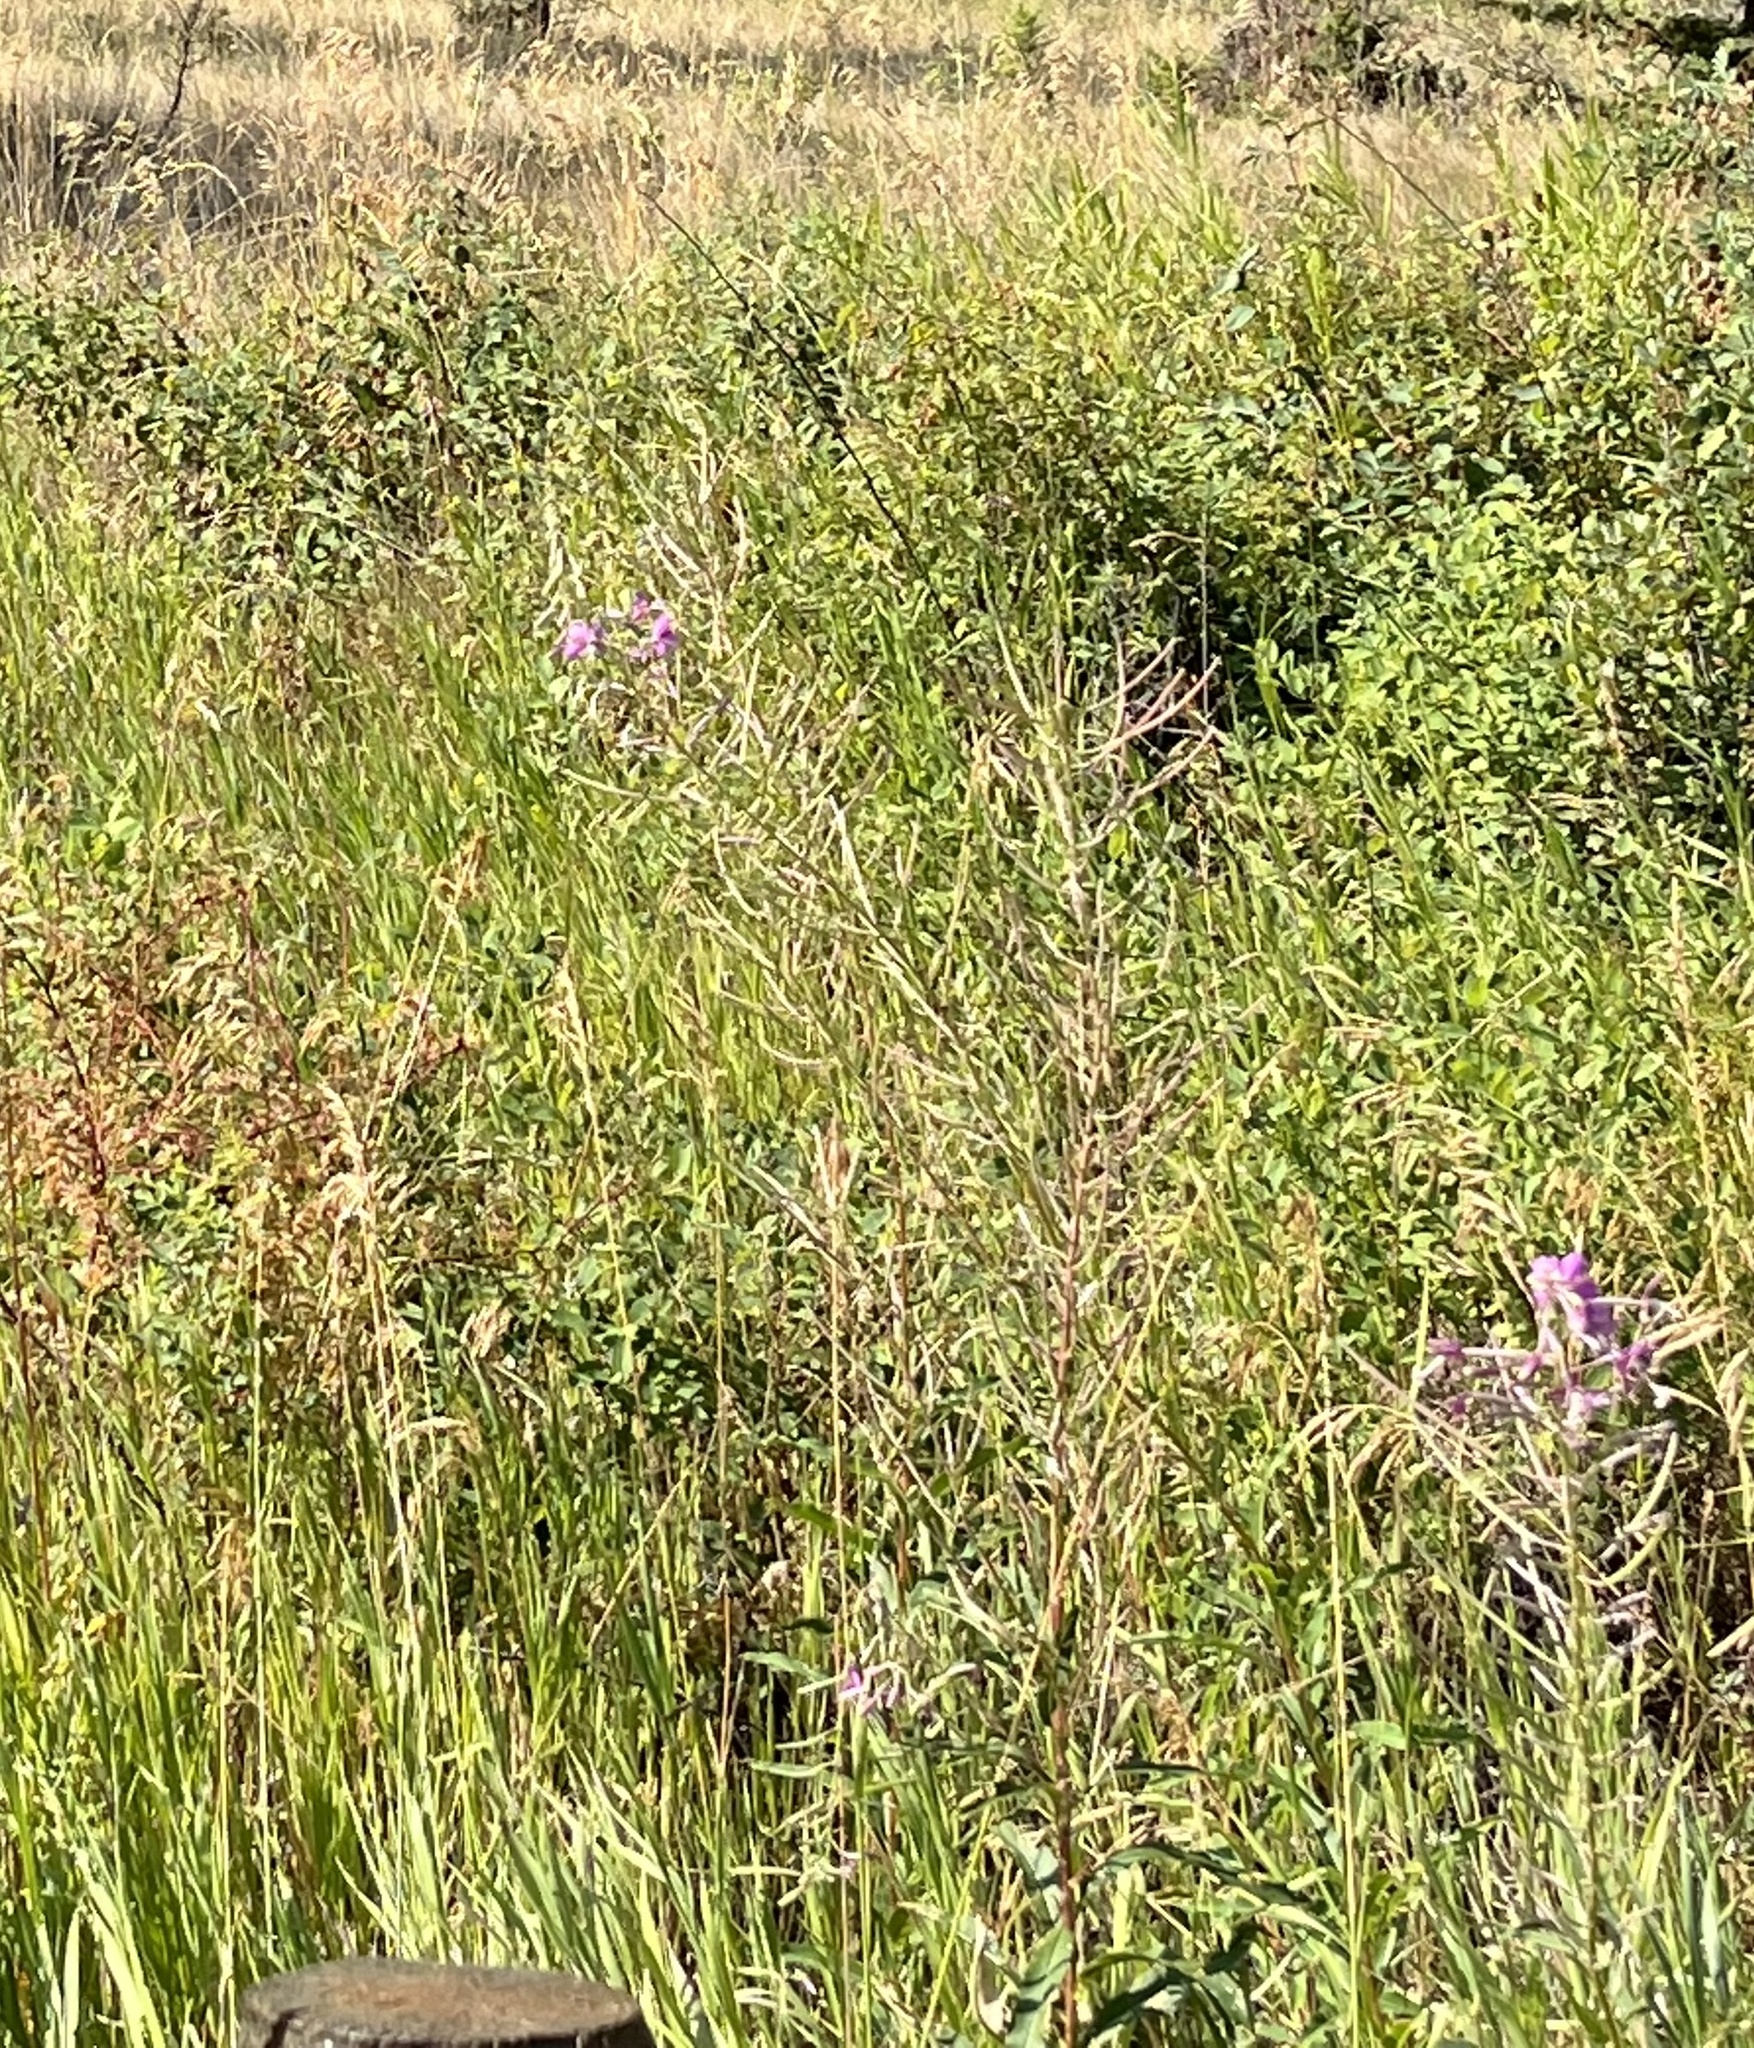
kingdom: Plantae
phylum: Tracheophyta
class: Magnoliopsida
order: Myrtales
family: Onagraceae
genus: Chamaenerion
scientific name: Chamaenerion angustifolium
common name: Fireweed
